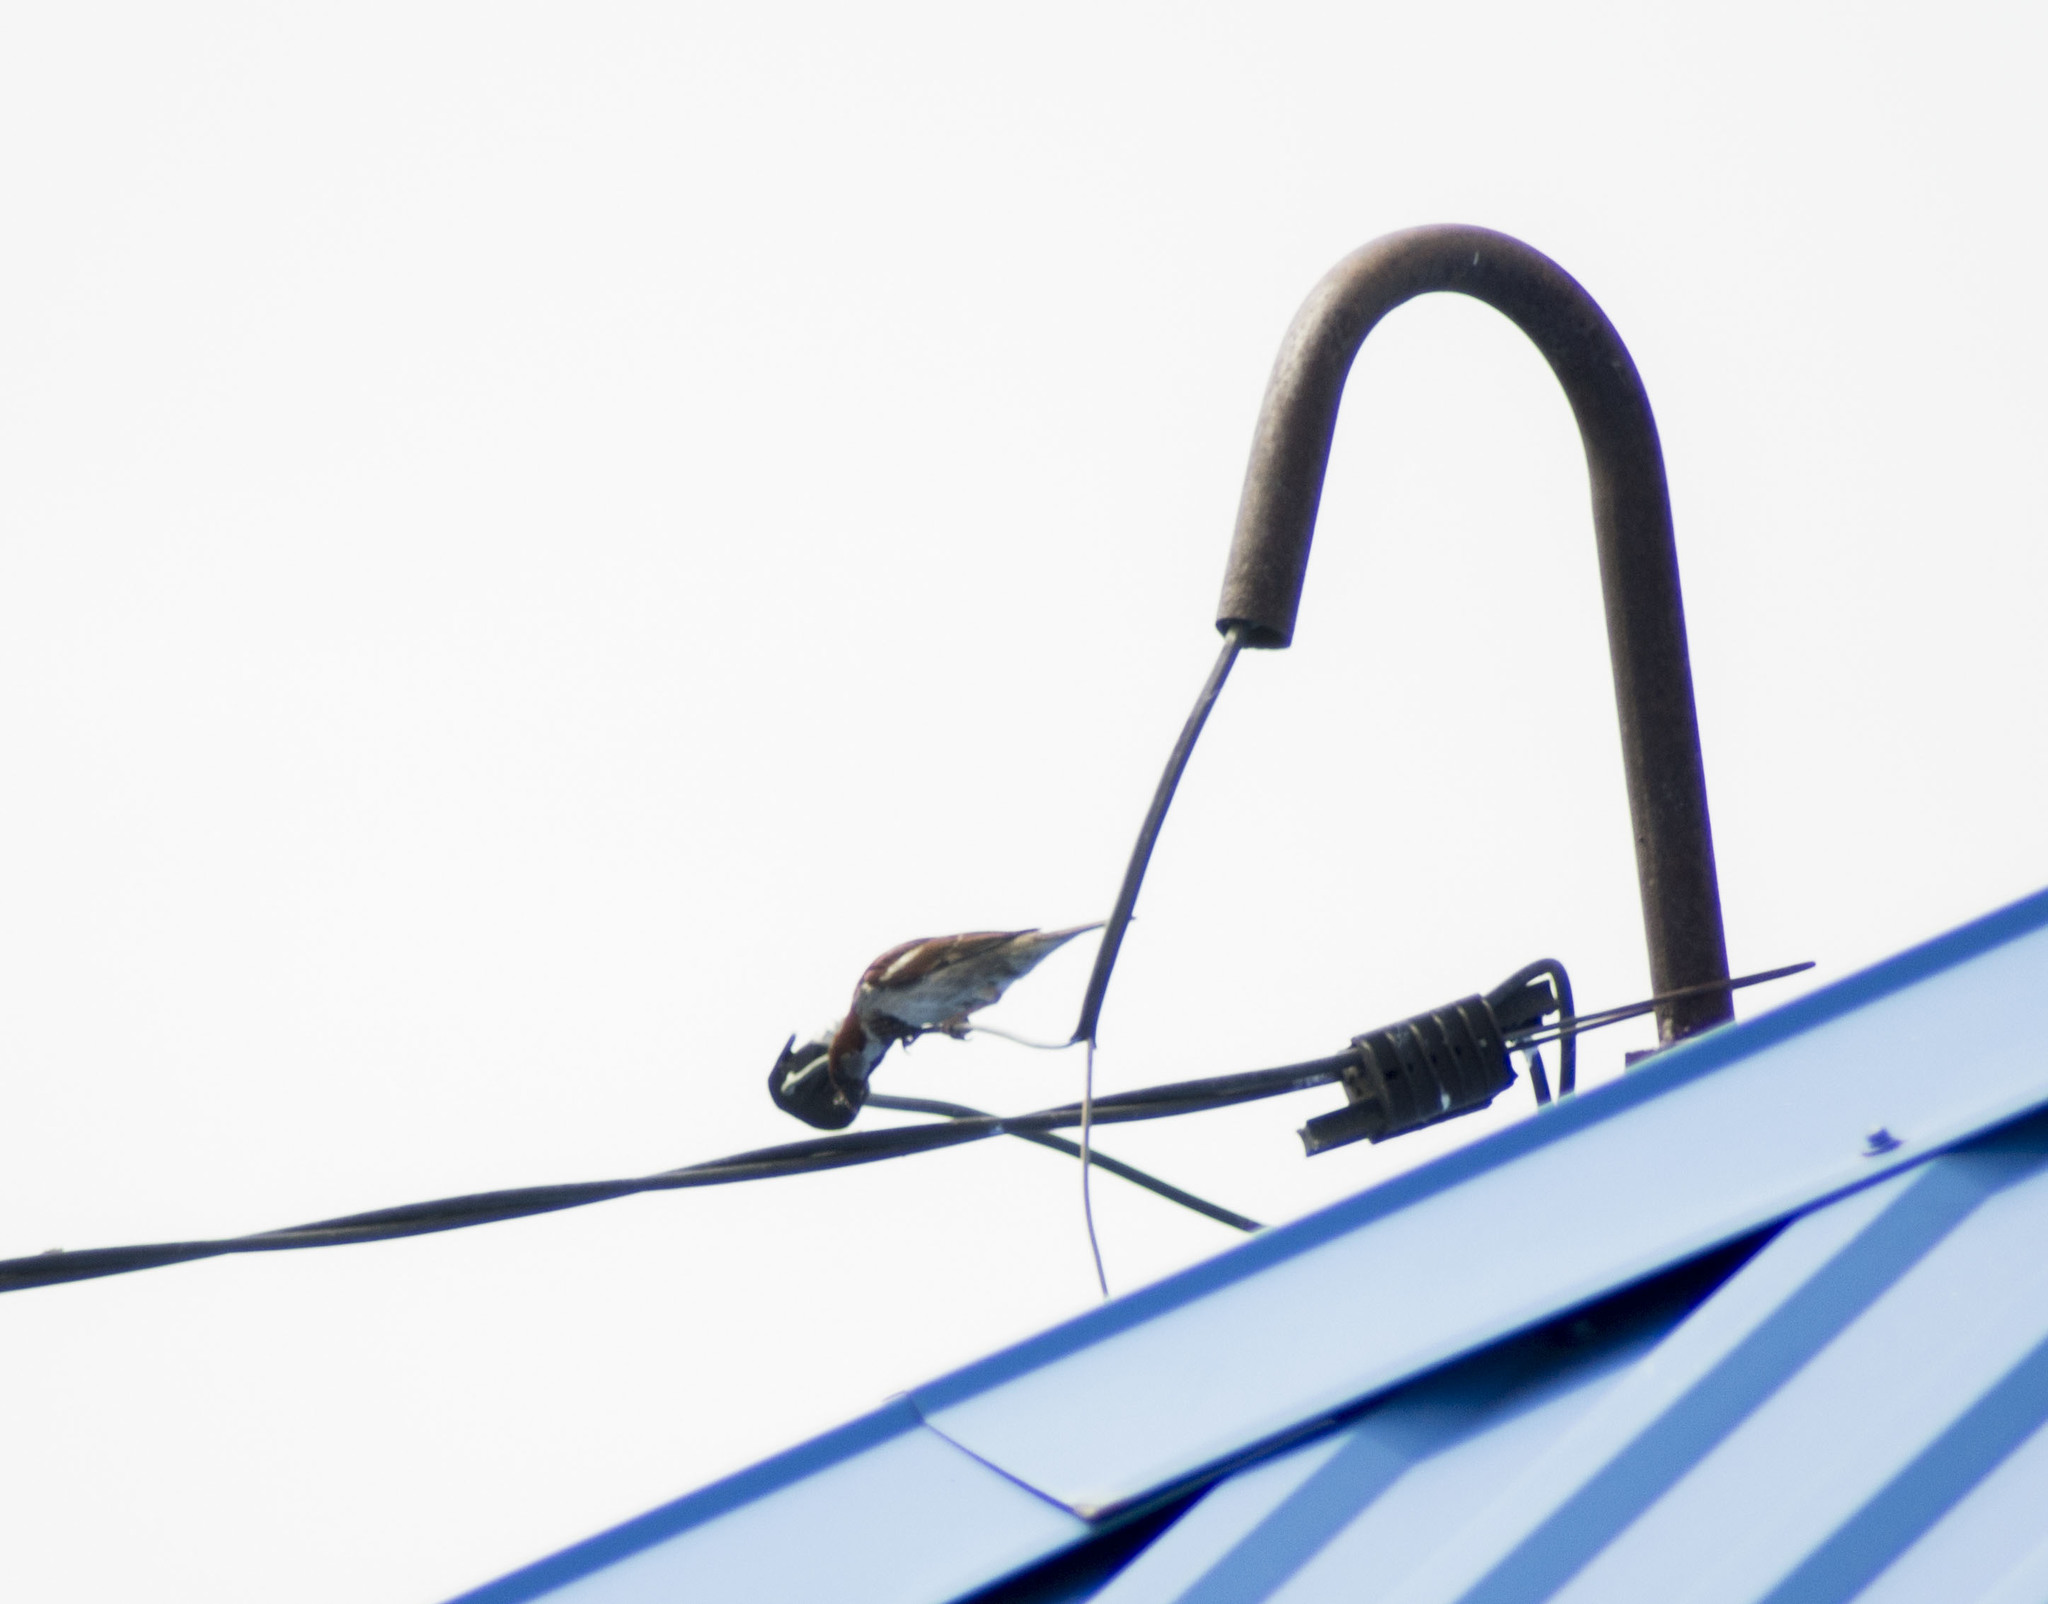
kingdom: Animalia
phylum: Chordata
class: Aves
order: Passeriformes
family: Passeridae
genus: Passer
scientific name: Passer montanus
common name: Eurasian tree sparrow
